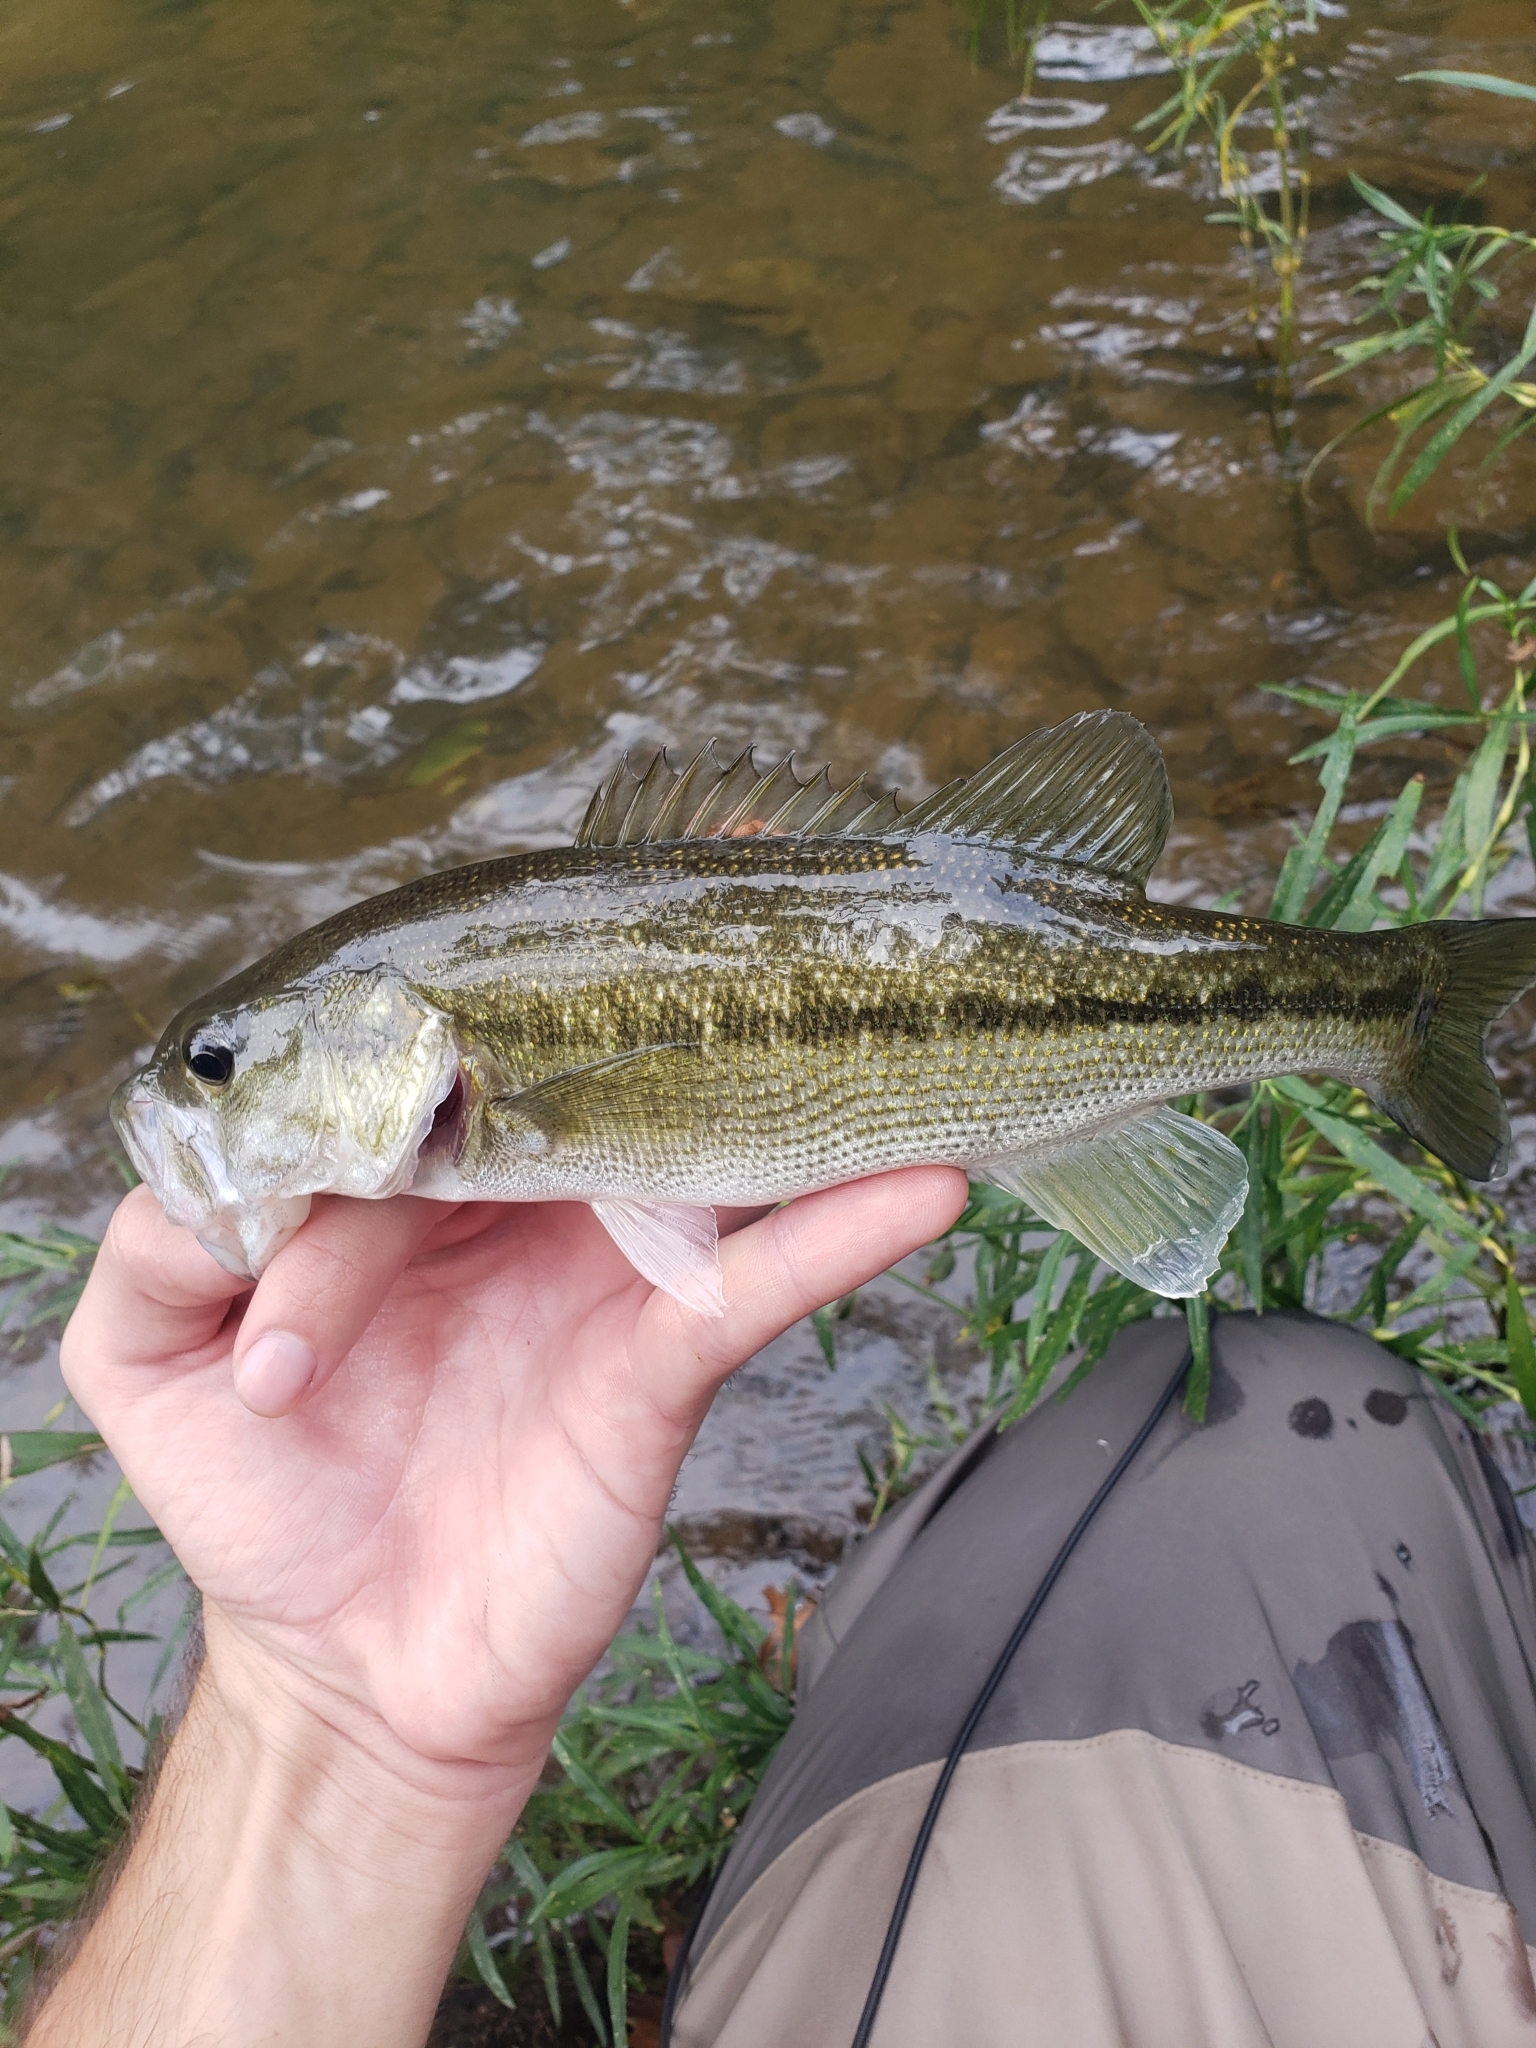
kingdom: Animalia
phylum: Chordata
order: Perciformes
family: Centrarchidae
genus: Micropterus
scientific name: Micropterus henshalli
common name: Alabama bass
